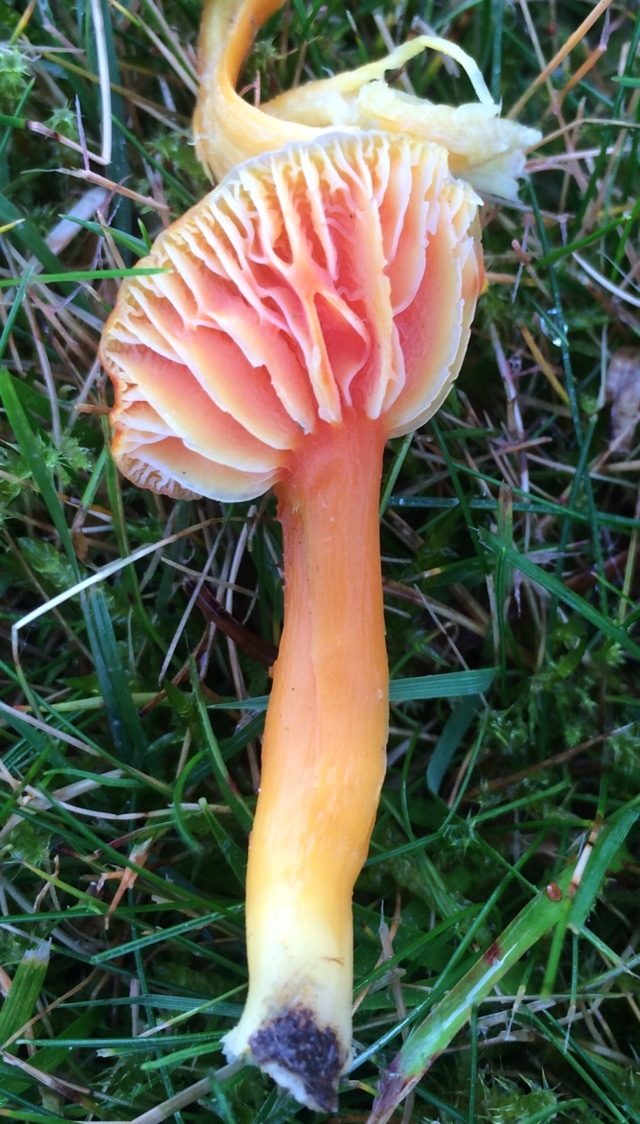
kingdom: Fungi
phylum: Basidiomycota
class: Agaricomycetes
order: Agaricales
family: Hygrophoraceae
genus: Hygrocybe
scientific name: Hygrocybe reidii
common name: Honey waxcap
